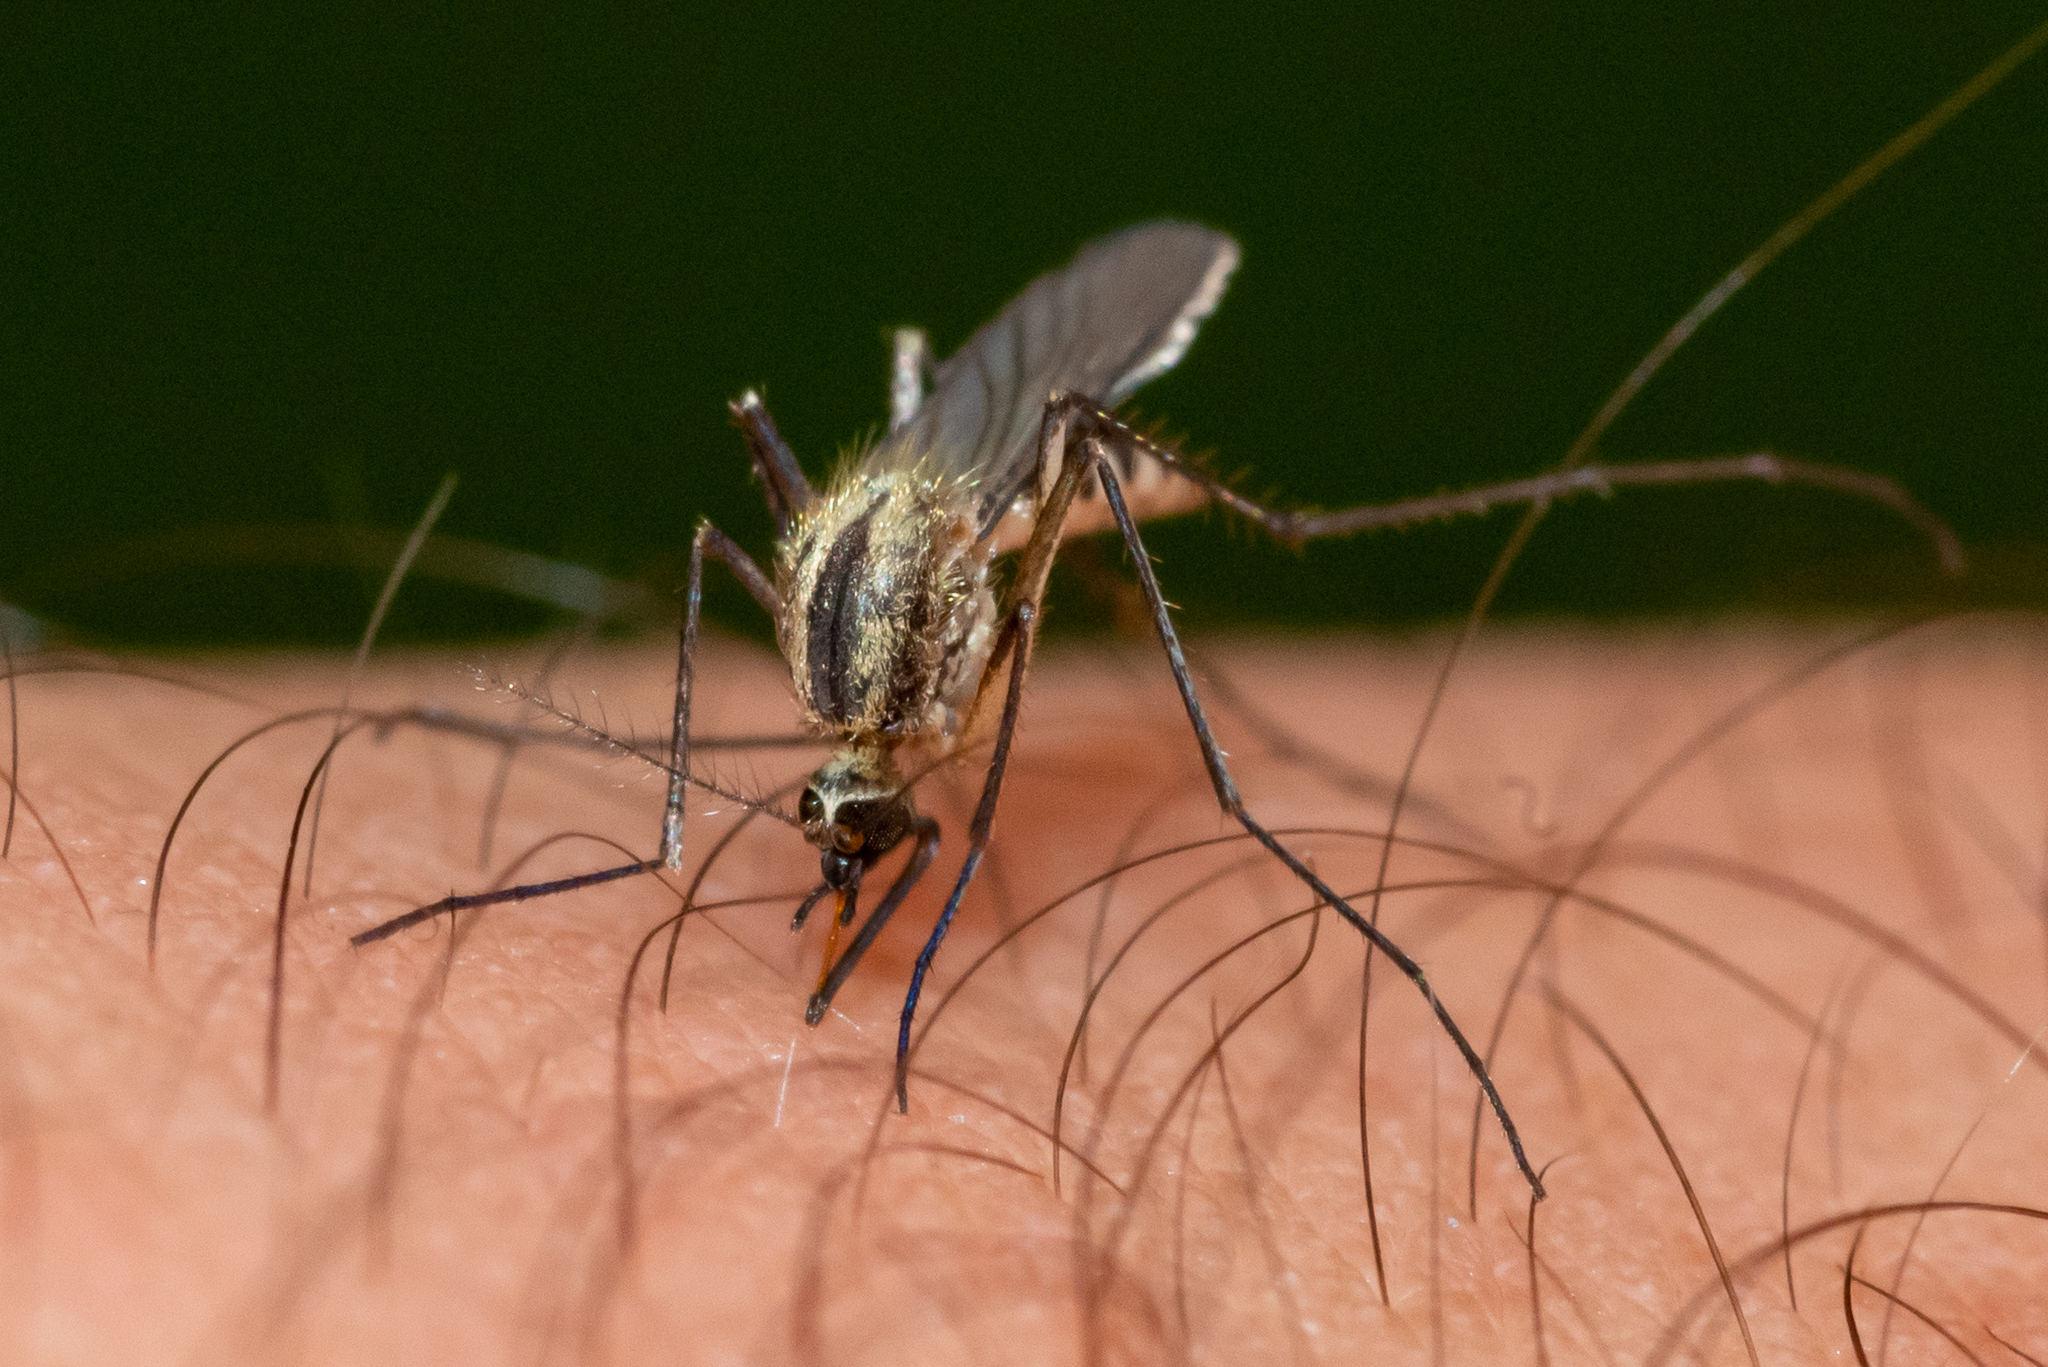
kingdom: Animalia
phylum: Arthropoda
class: Insecta
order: Diptera
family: Culicidae
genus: Aedes
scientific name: Aedes trivittatus
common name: Plains floodwater mosquito
